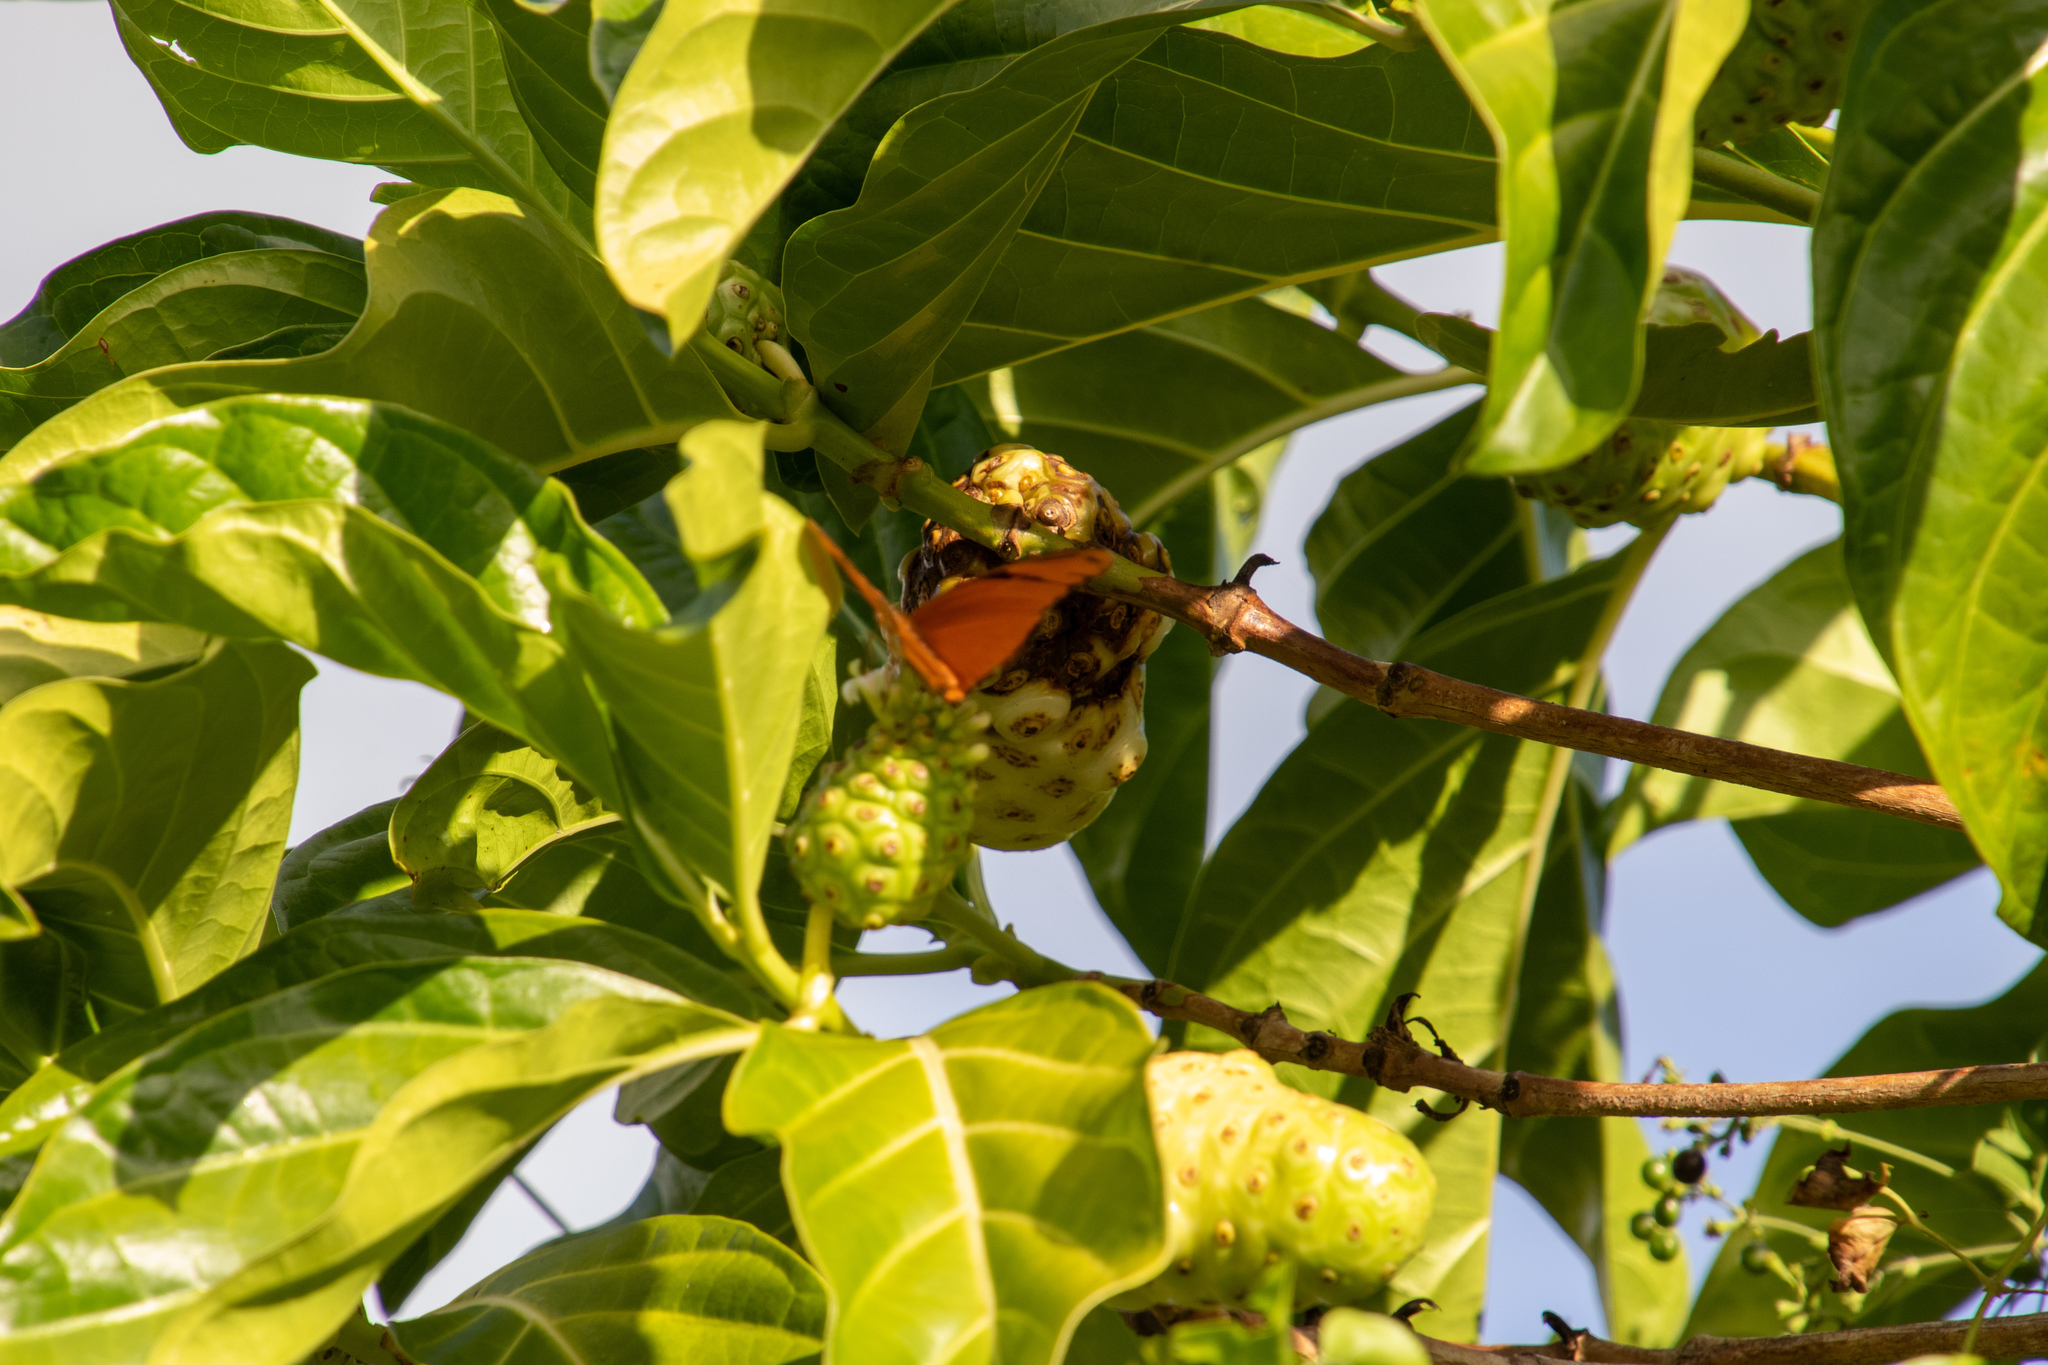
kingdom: Plantae
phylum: Tracheophyta
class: Magnoliopsida
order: Gentianales
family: Rubiaceae
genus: Morinda
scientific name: Morinda citrifolia
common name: Indian-mulberry
